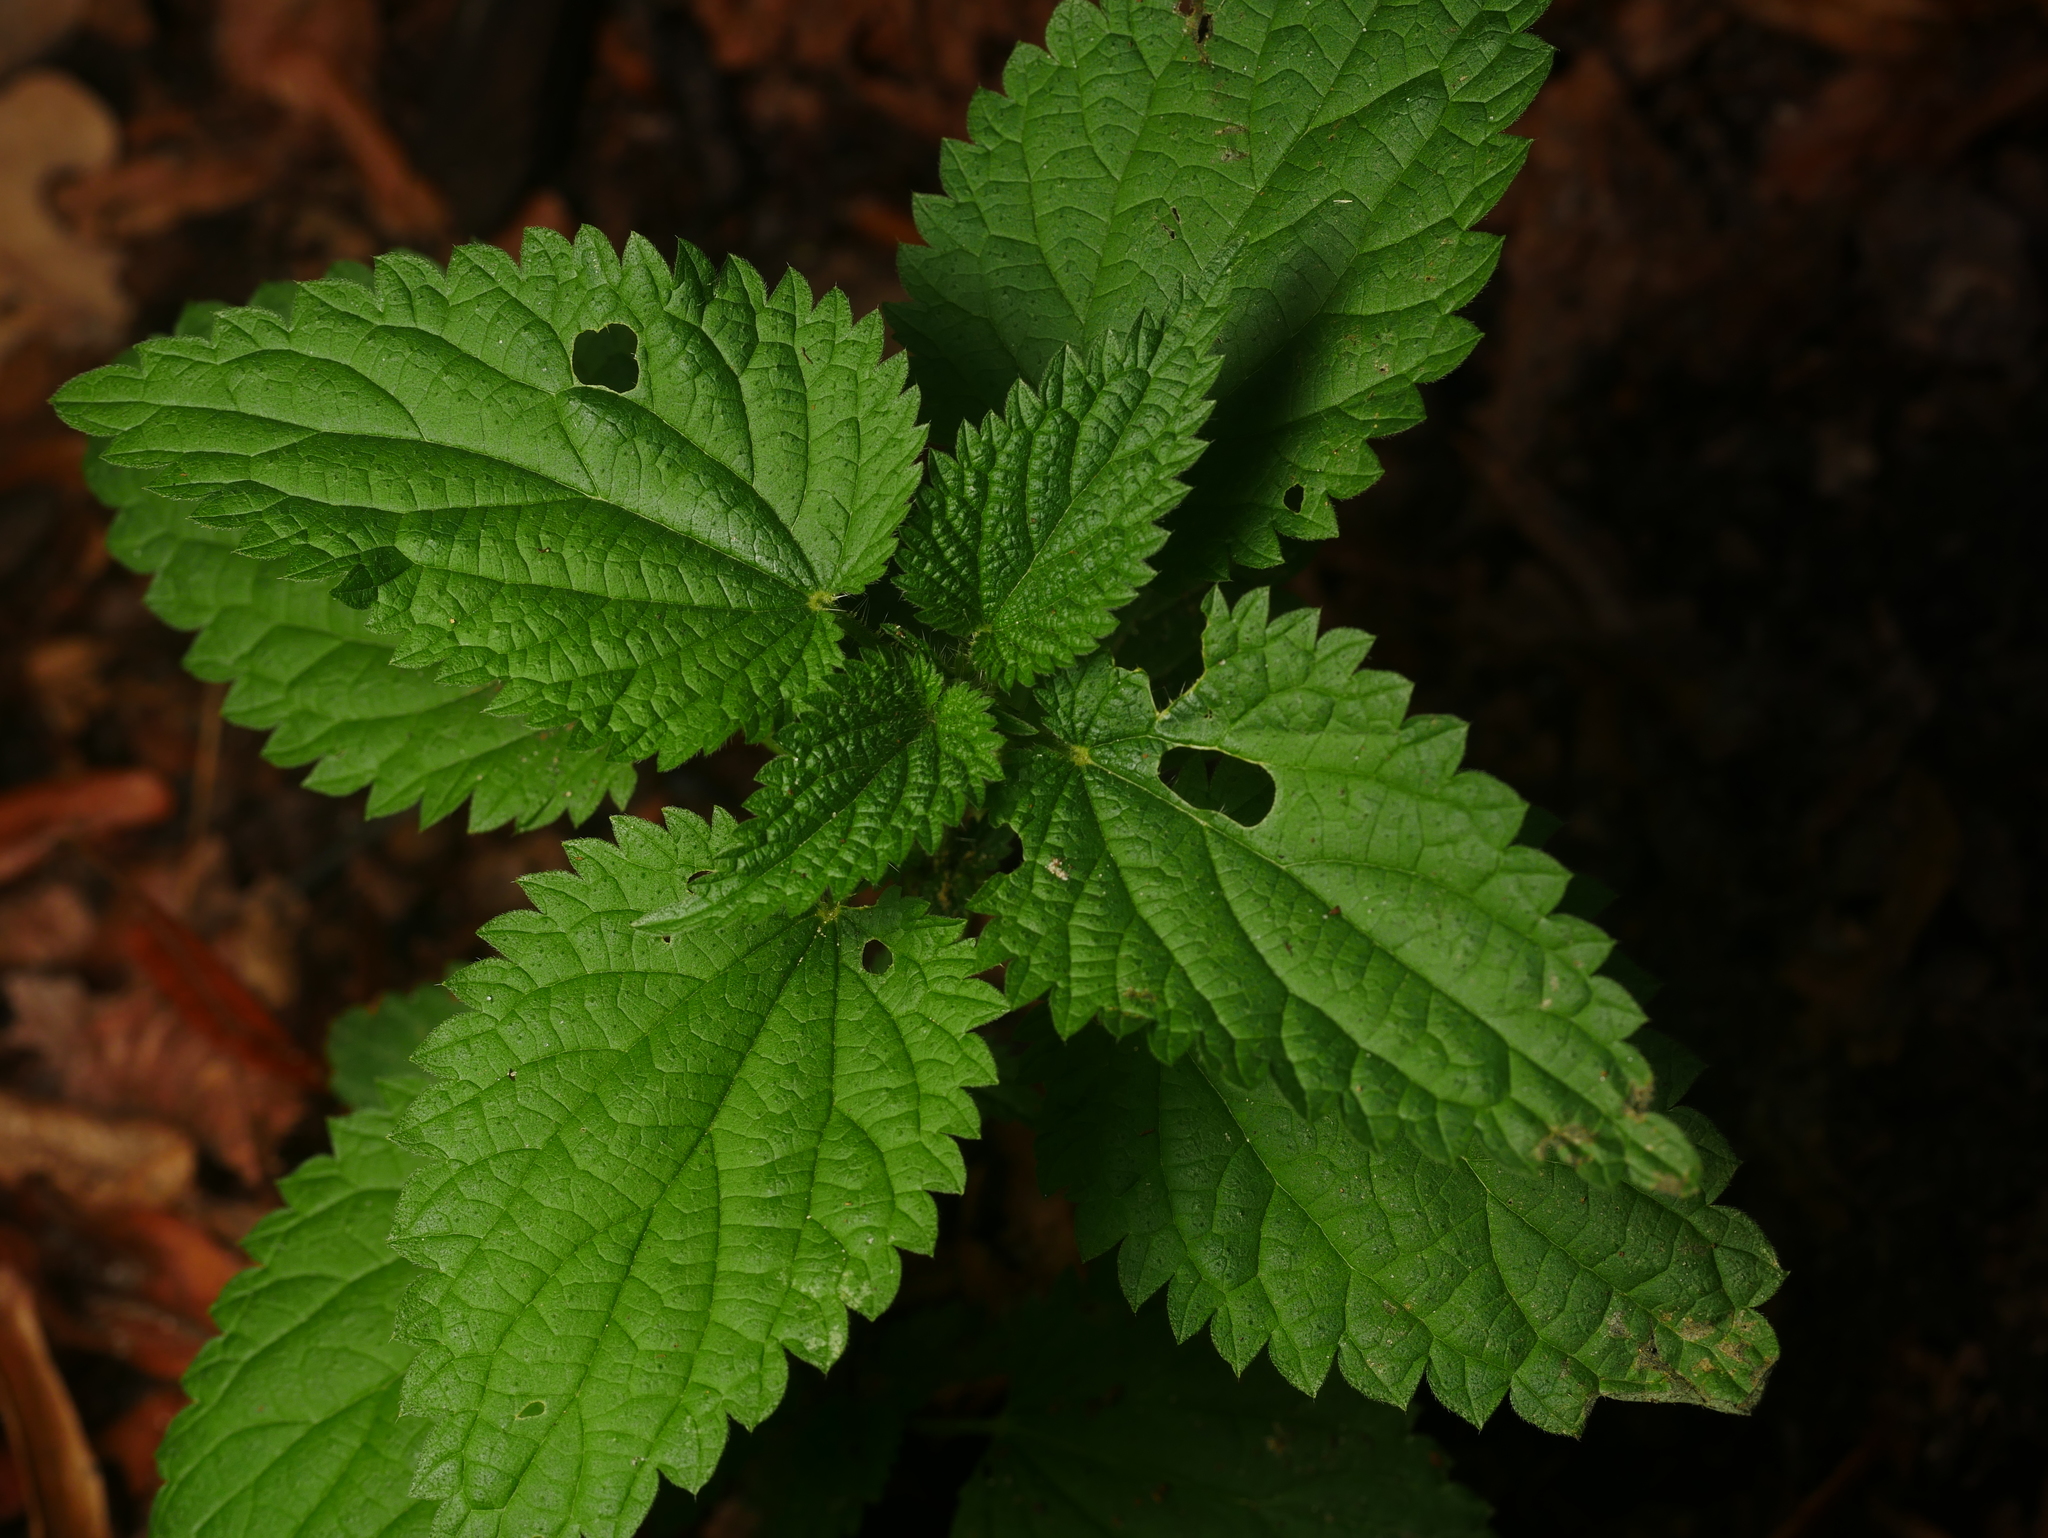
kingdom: Plantae
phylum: Tracheophyta
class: Magnoliopsida
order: Rosales
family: Urticaceae
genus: Urtica
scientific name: Urtica dioica
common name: Common nettle
